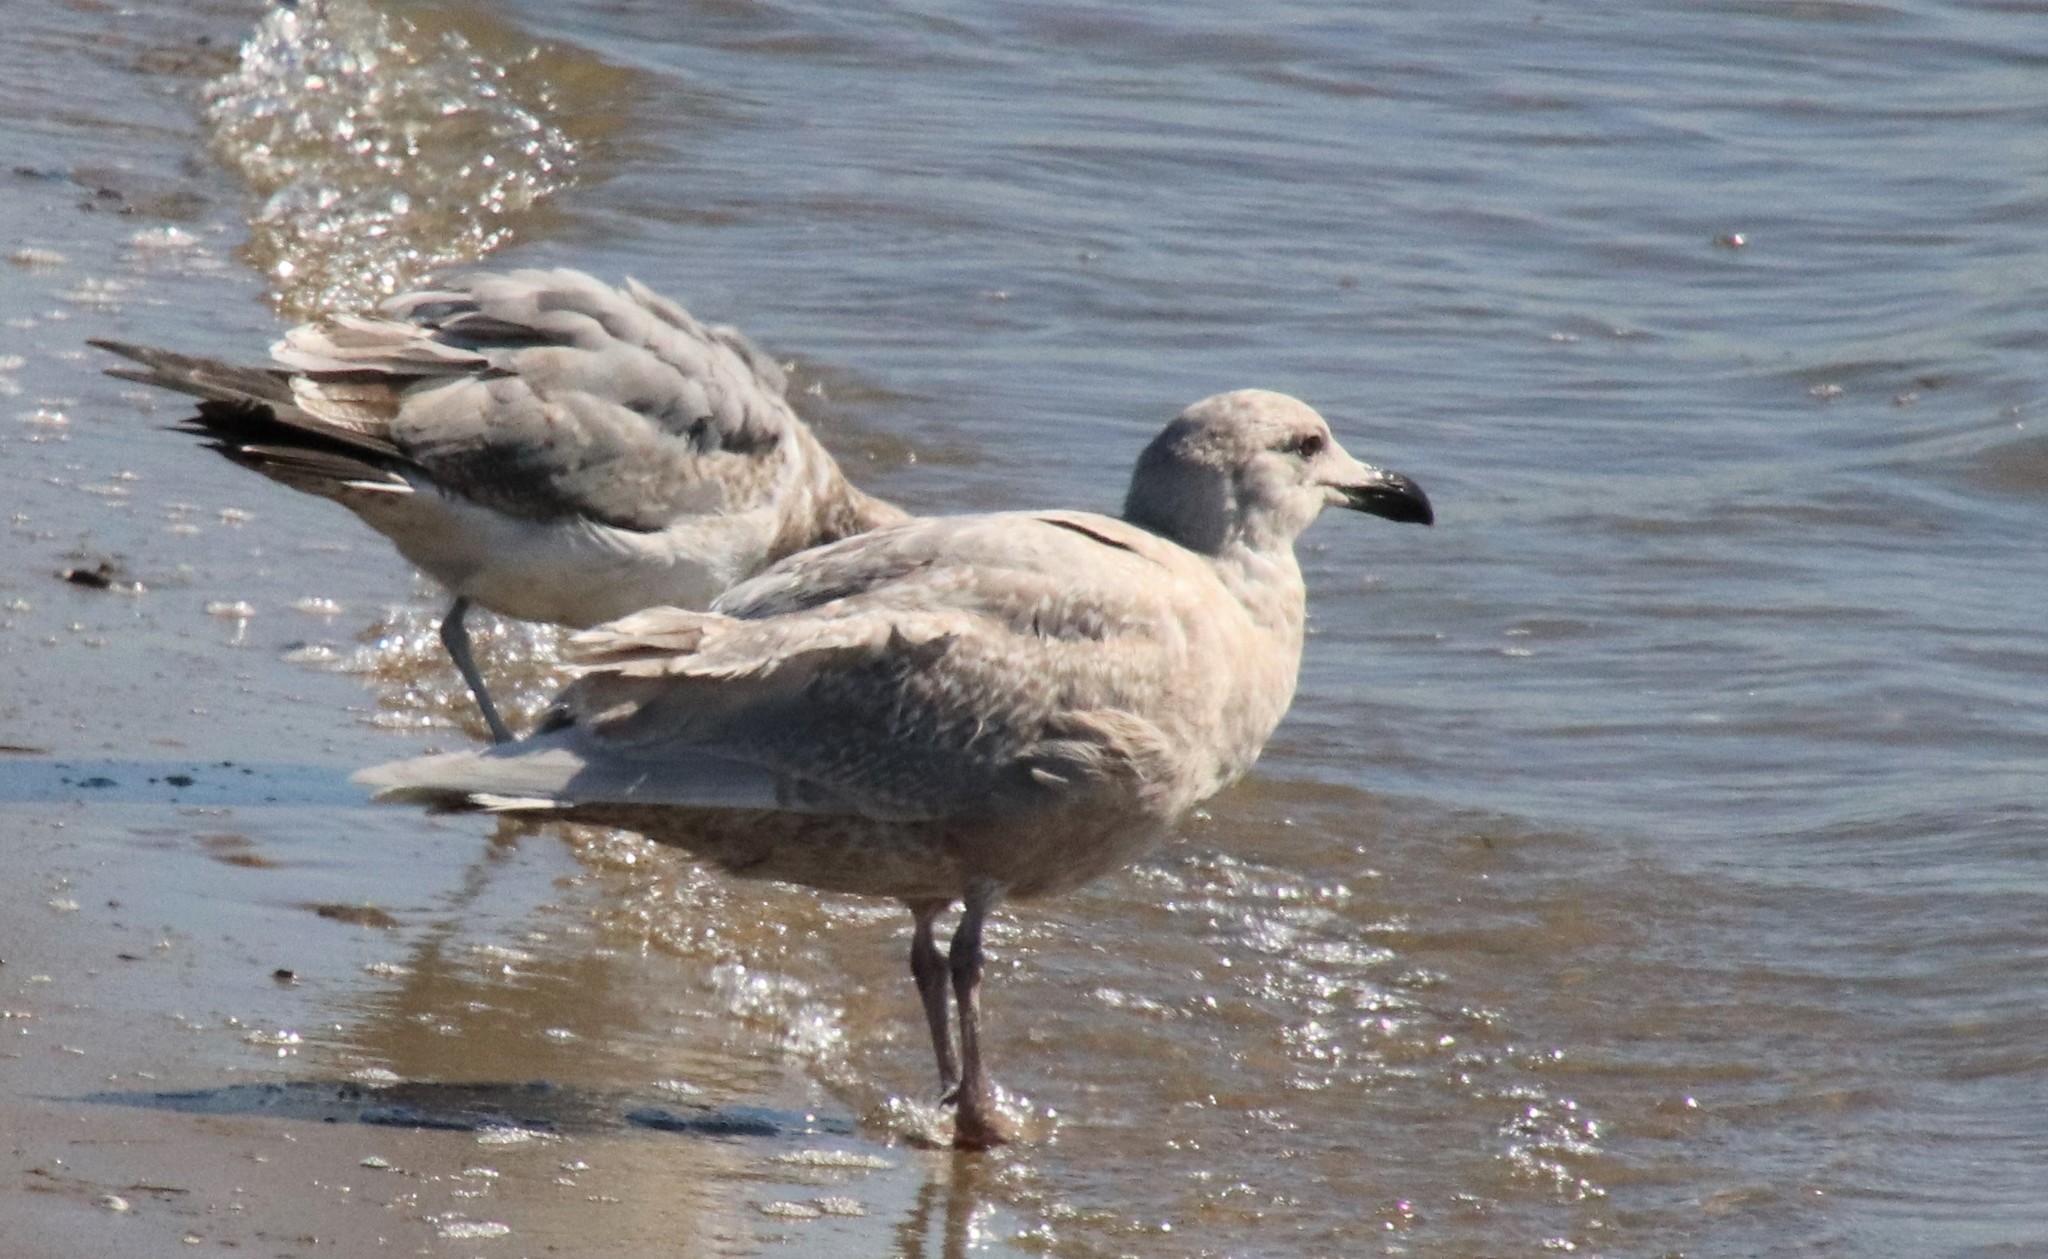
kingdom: Animalia
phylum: Chordata
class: Aves
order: Charadriiformes
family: Laridae
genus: Larus
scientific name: Larus glaucescens
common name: Glaucous-winged gull
